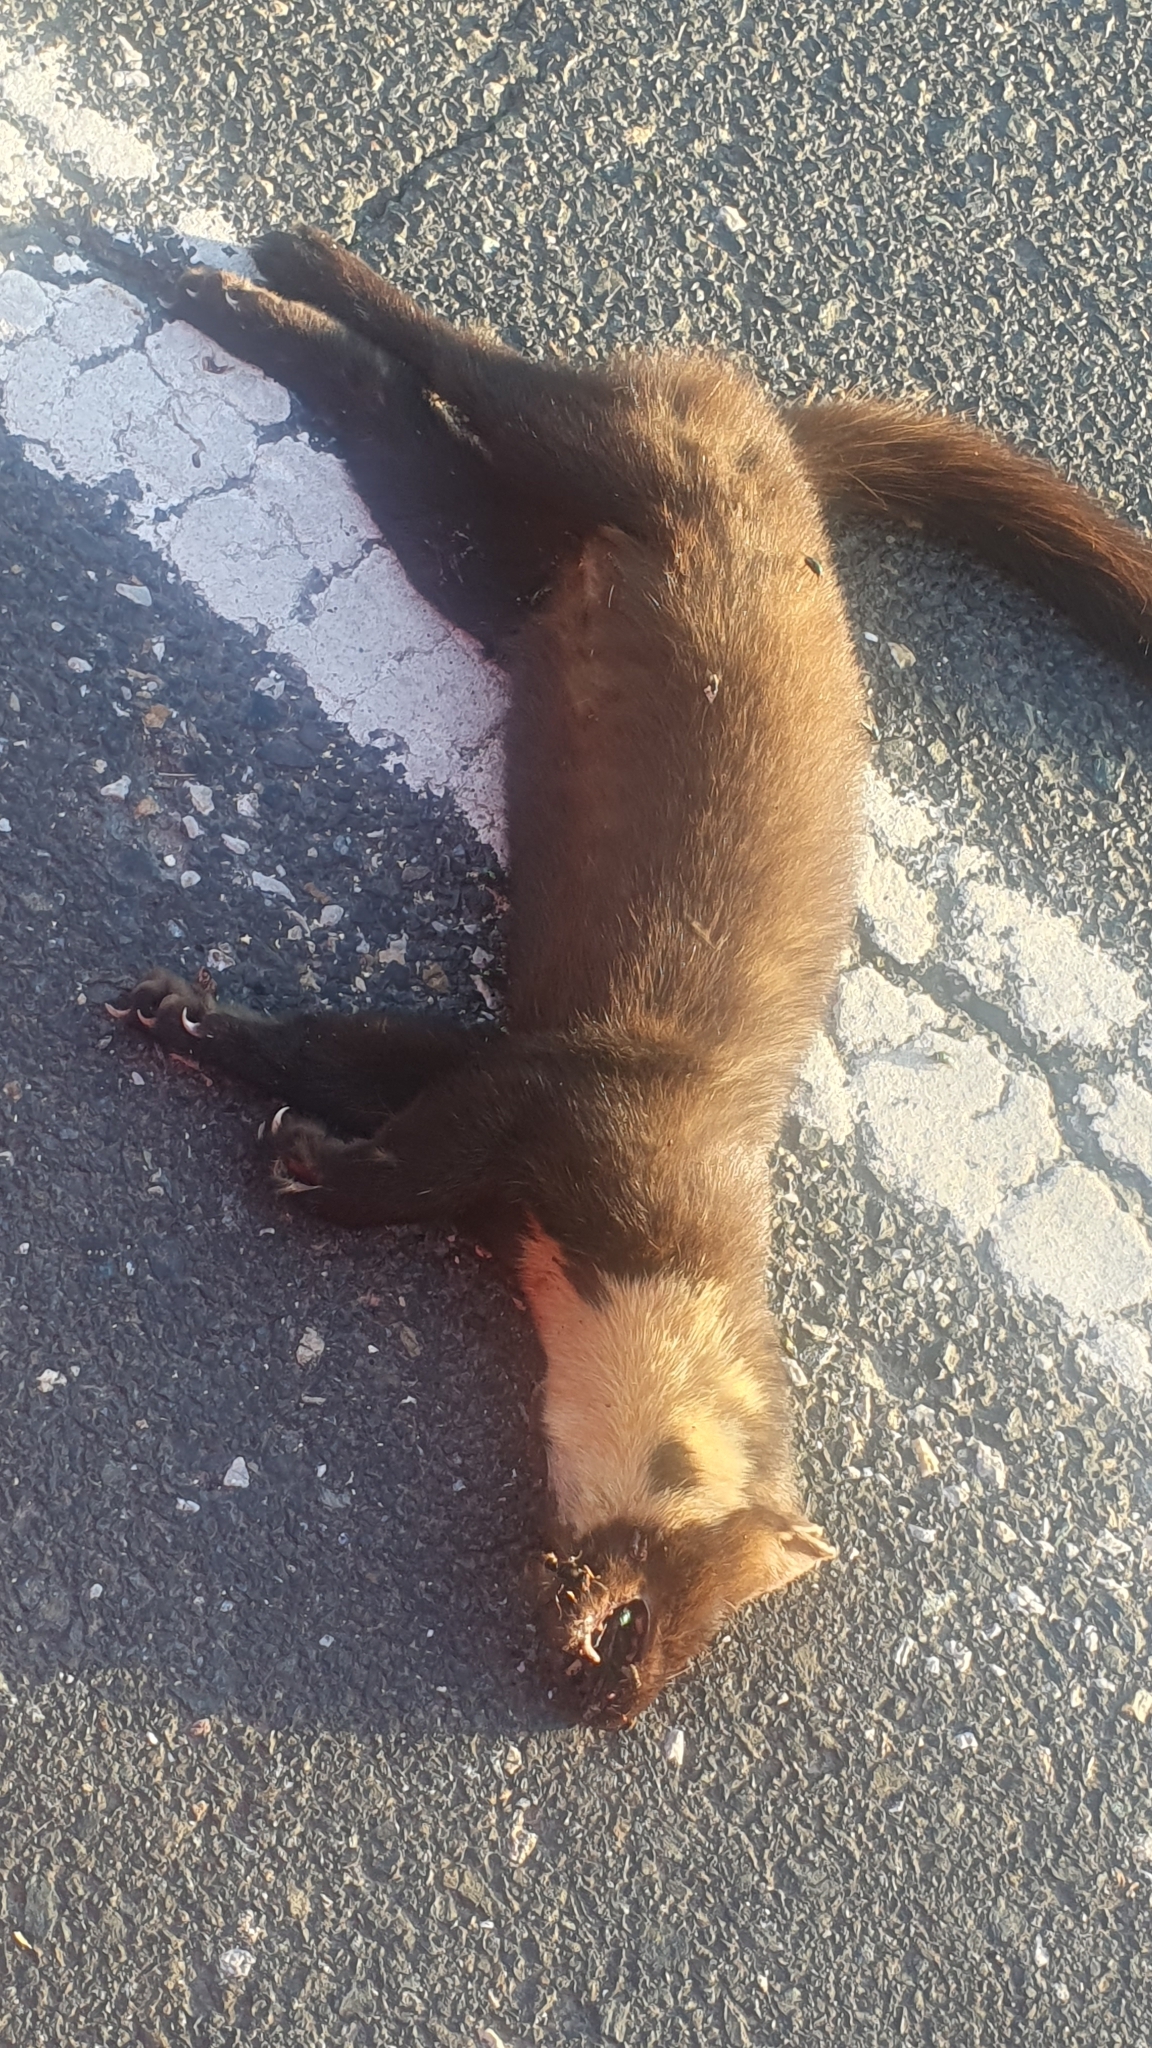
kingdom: Animalia
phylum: Chordata
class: Mammalia
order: Carnivora
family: Mustelidae
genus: Martes
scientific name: Martes martes
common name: European pine marten
